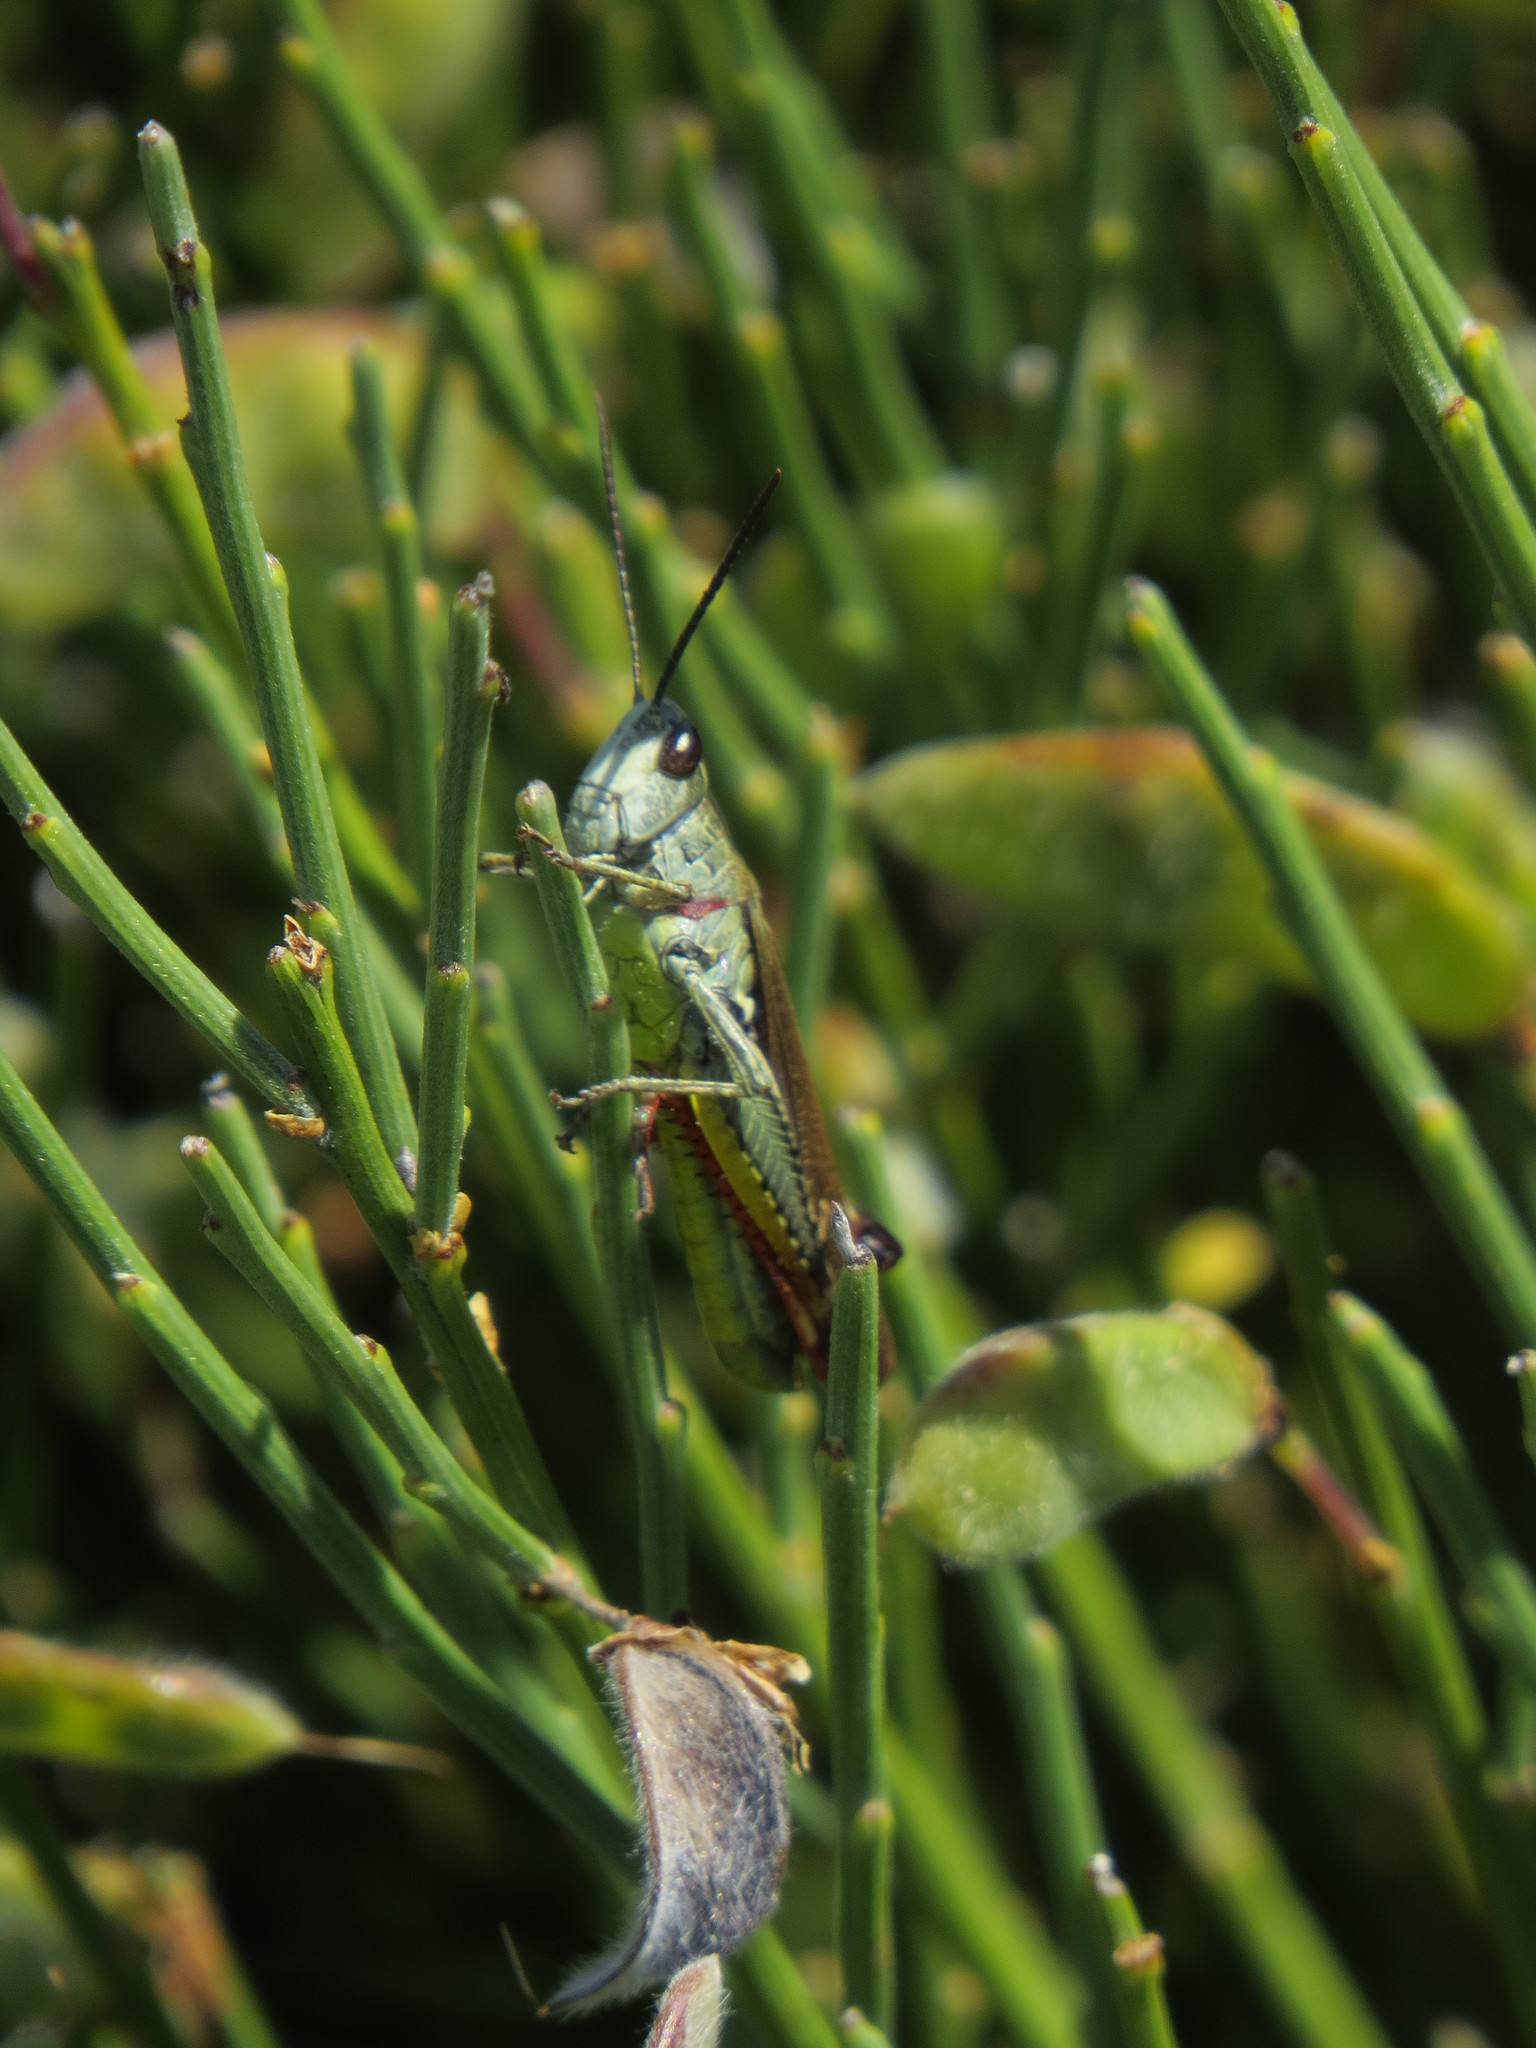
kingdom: Animalia
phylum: Arthropoda
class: Insecta
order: Orthoptera
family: Acrididae
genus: Chorthippus
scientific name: Chorthippus binotatus
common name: Two-marked grasshopper
